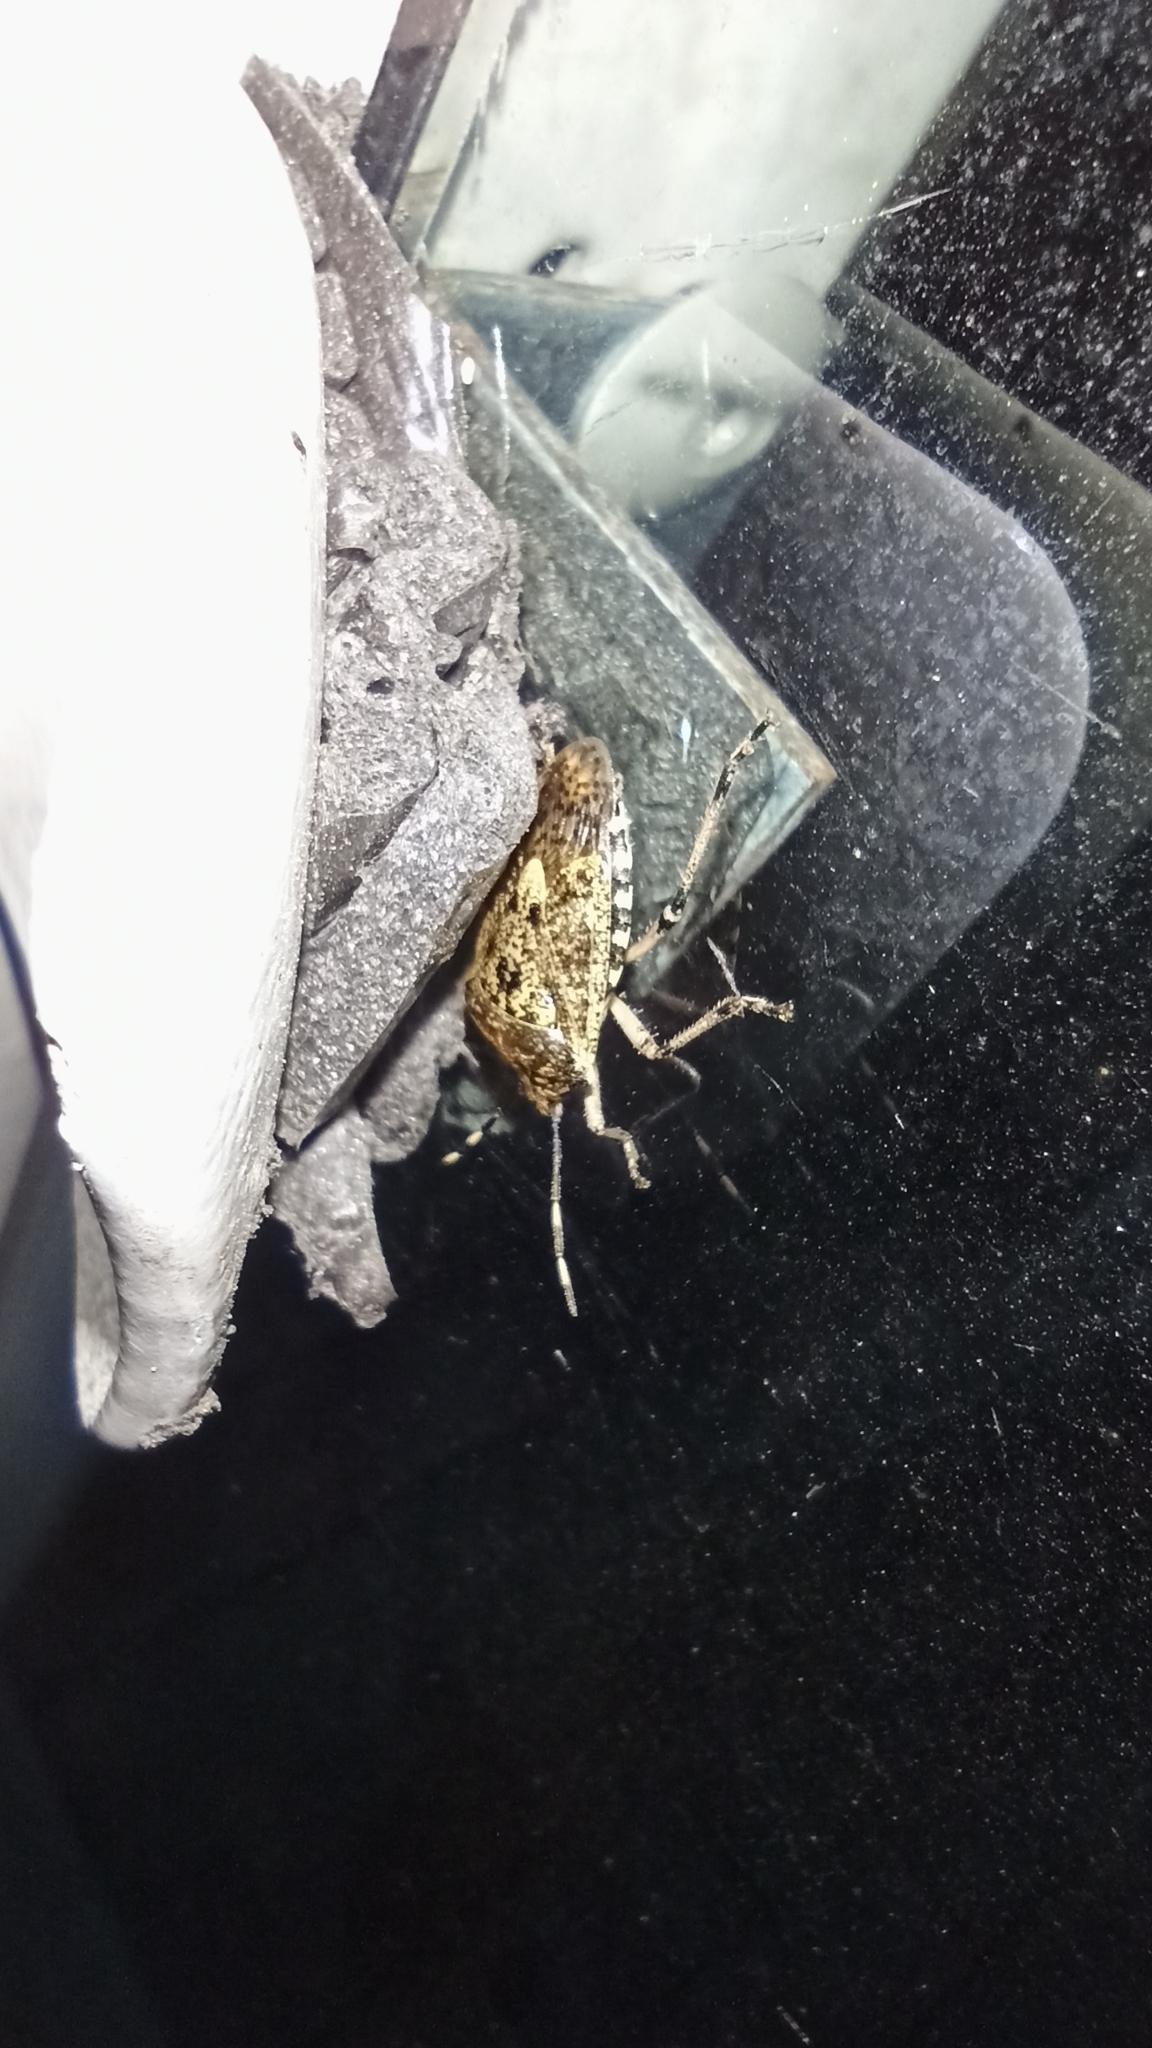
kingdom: Animalia
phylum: Arthropoda
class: Insecta
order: Hemiptera
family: Pentatomidae
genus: Rhaphigaster
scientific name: Rhaphigaster nebulosa
